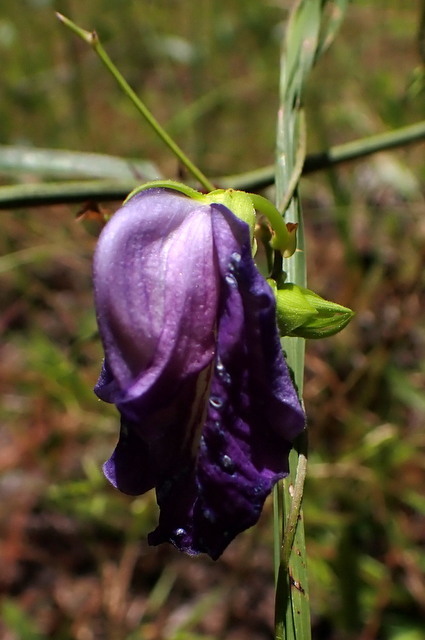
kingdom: Plantae
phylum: Tracheophyta
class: Magnoliopsida
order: Fabales
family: Fabaceae
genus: Centrosema
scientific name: Centrosema virginianum
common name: Butterfly-pea
